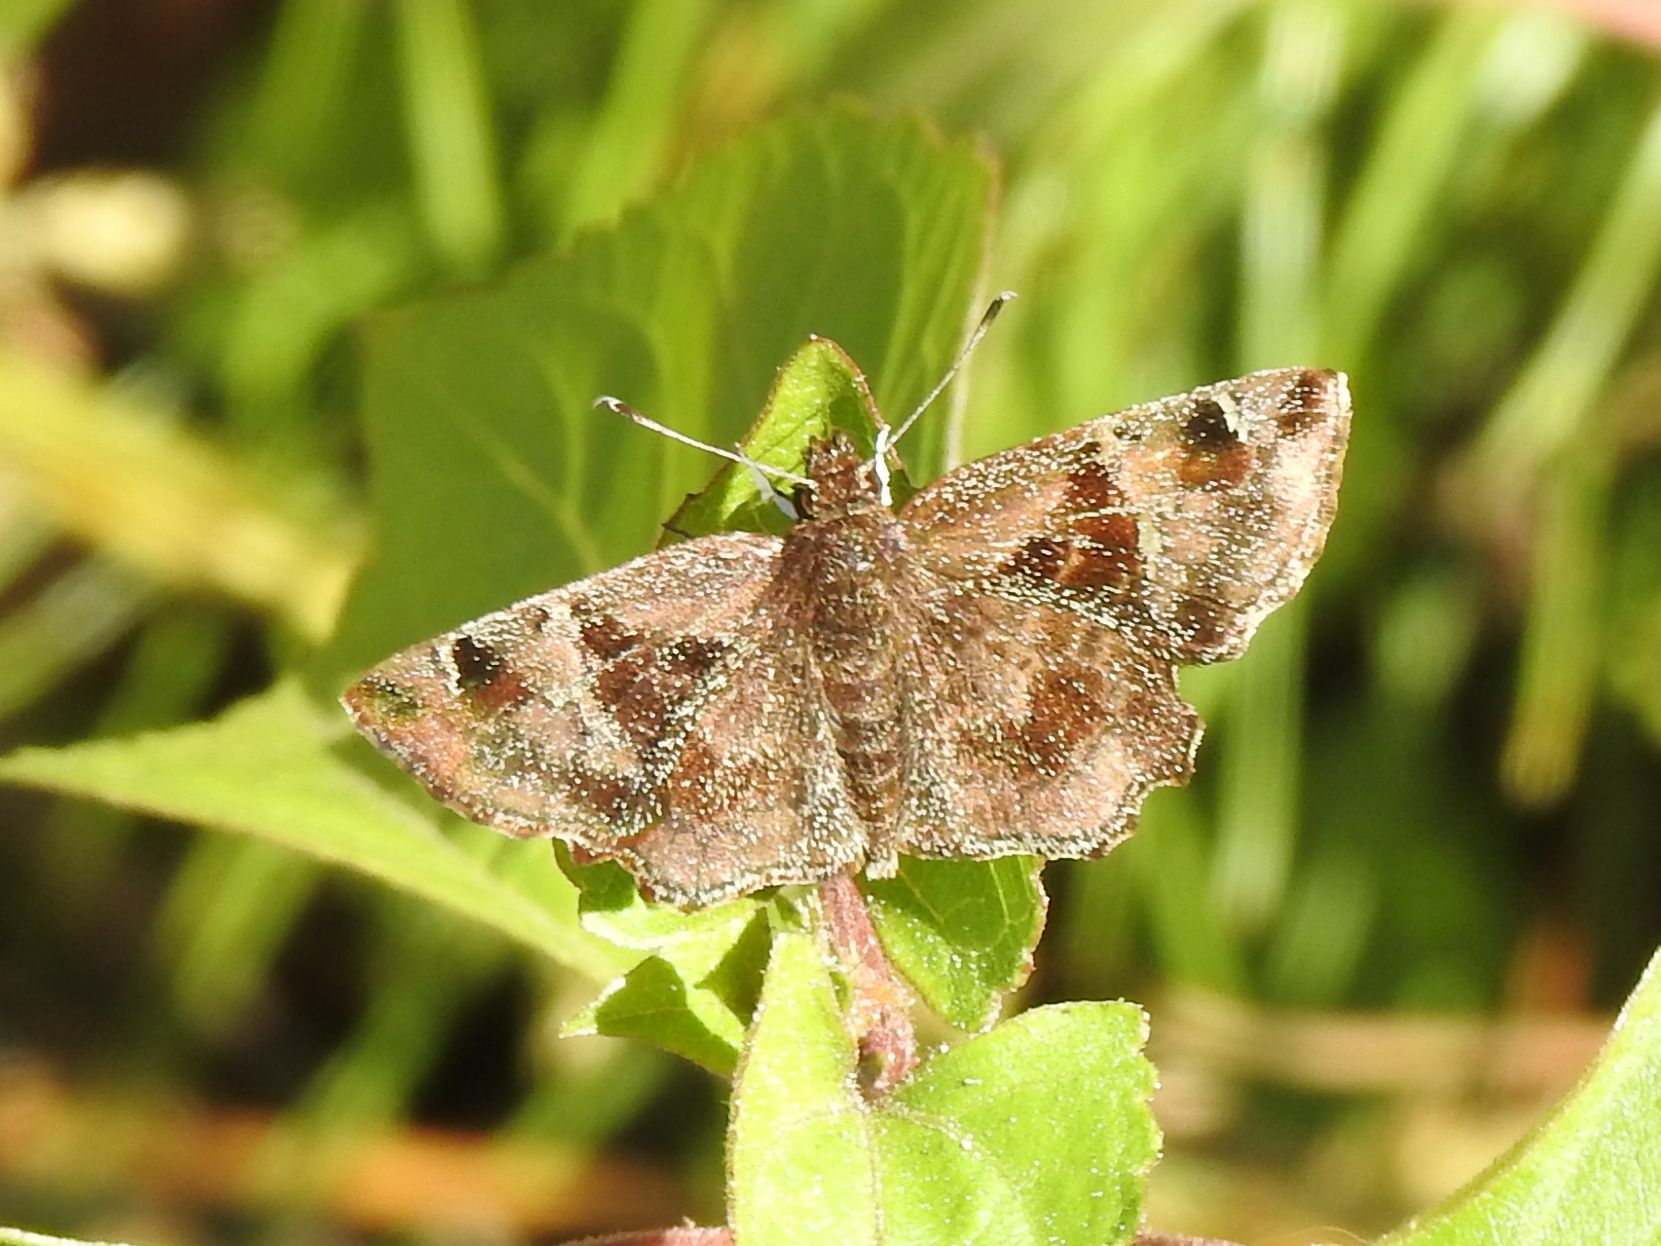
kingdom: Animalia
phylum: Arthropoda
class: Insecta
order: Lepidoptera
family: Hesperiidae
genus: Eretis
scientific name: Eretis djaelaelae
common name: Marbled elf
